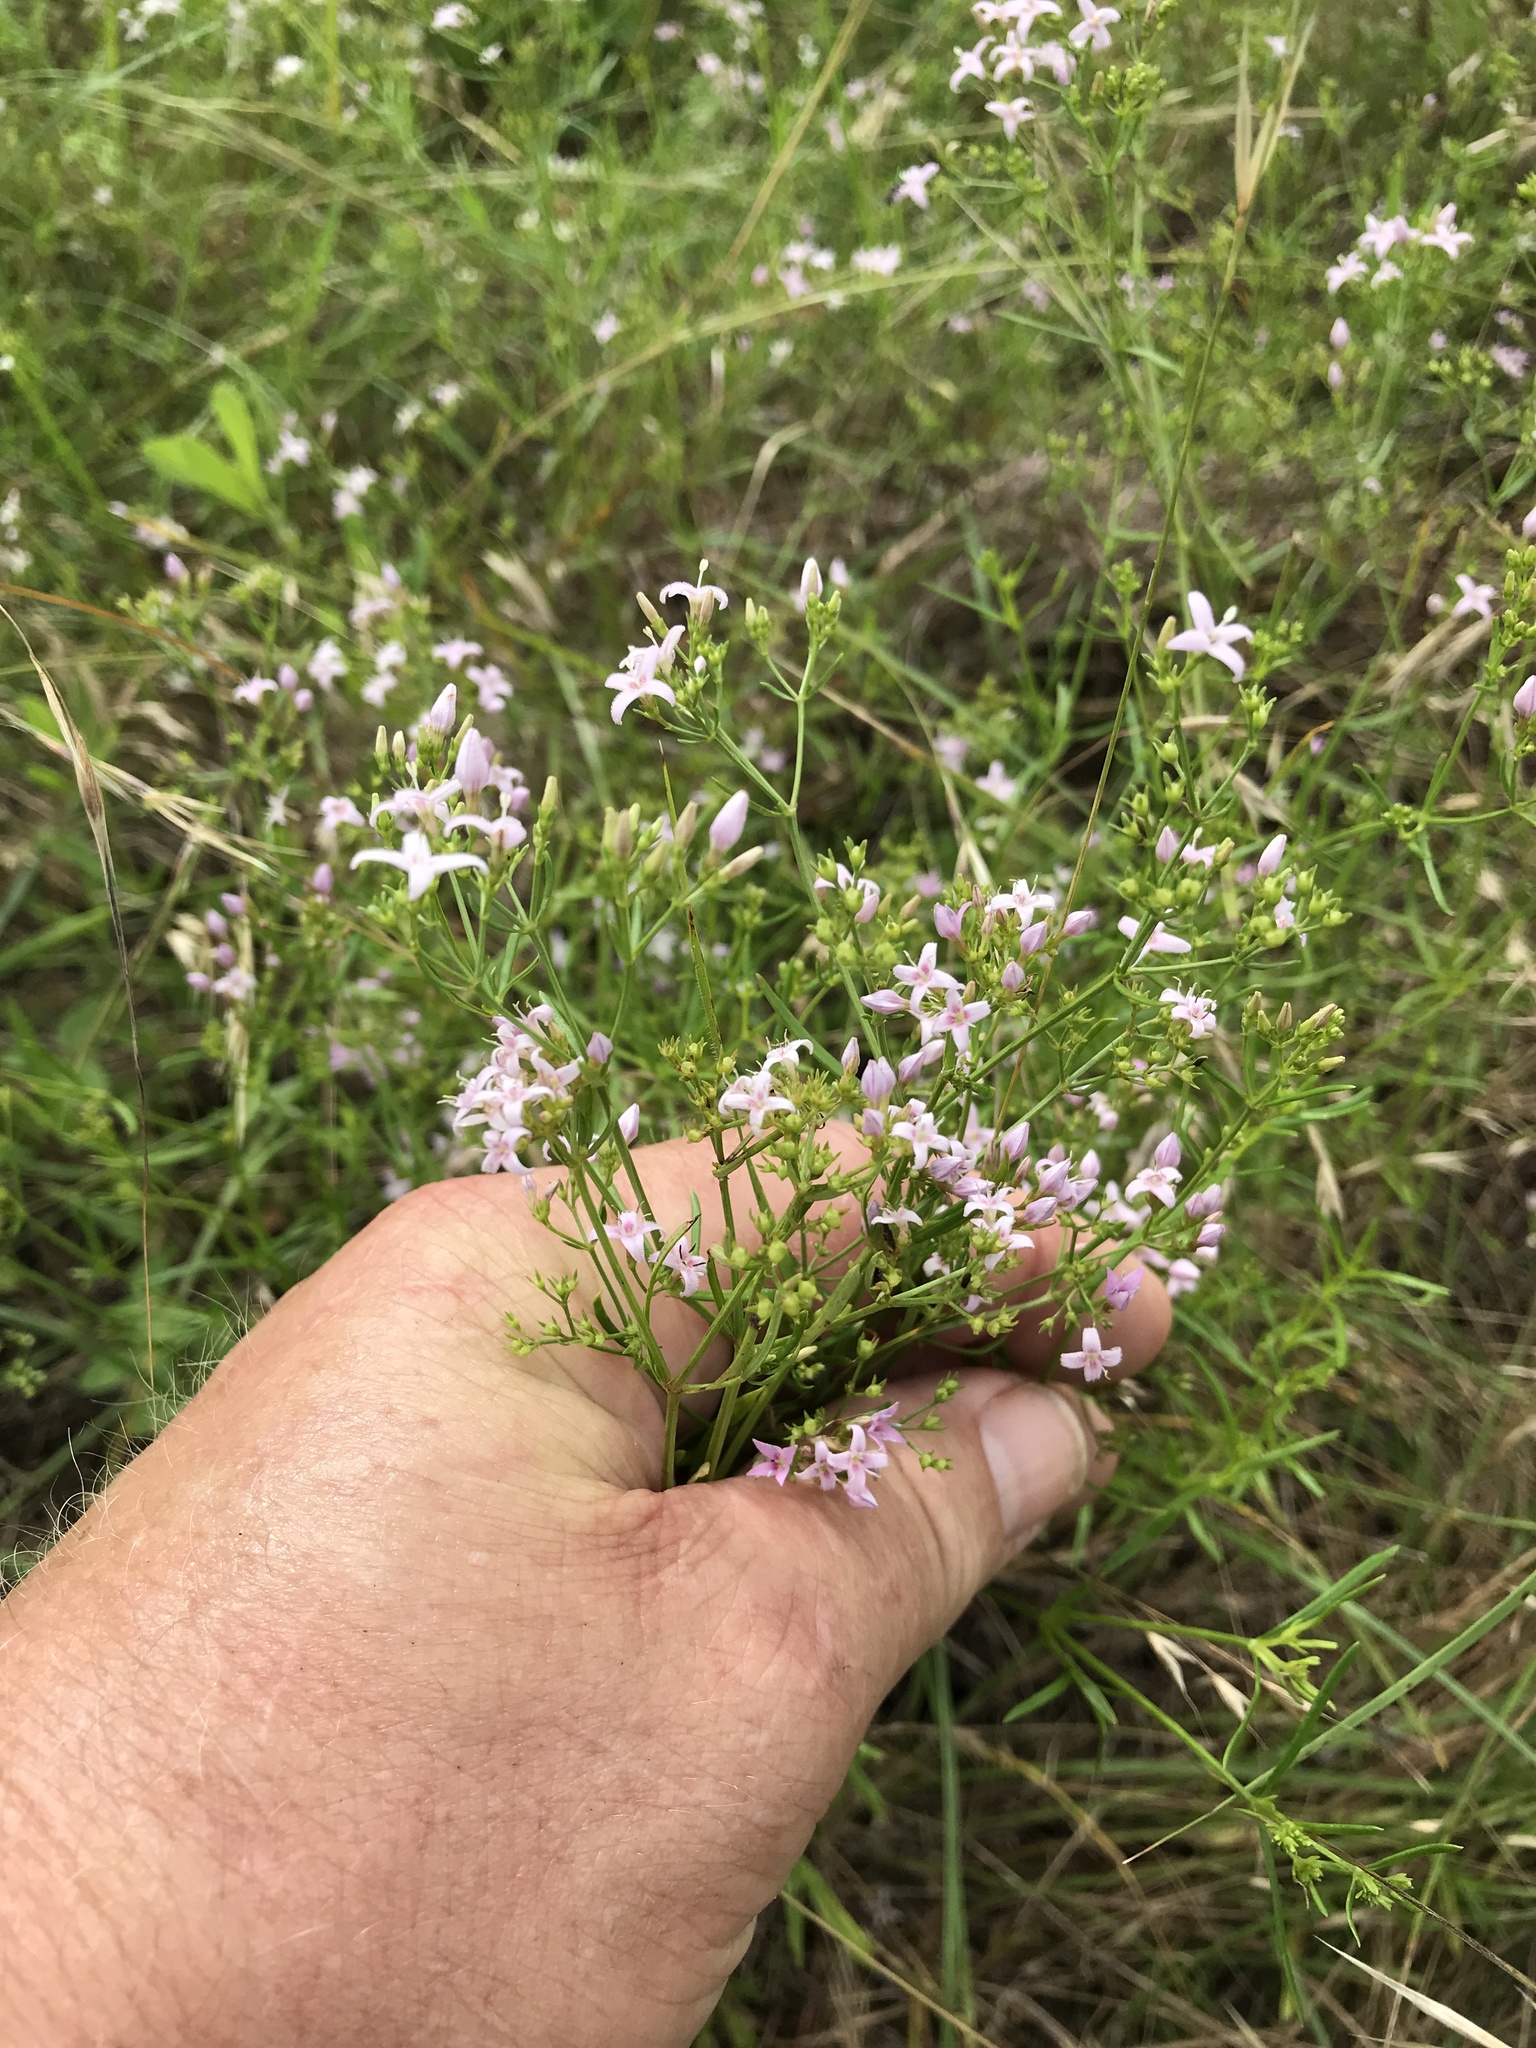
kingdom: Plantae
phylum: Tracheophyta
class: Magnoliopsida
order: Gentianales
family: Rubiaceae
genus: Stenaria
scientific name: Stenaria nigricans
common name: Diamondflowers
